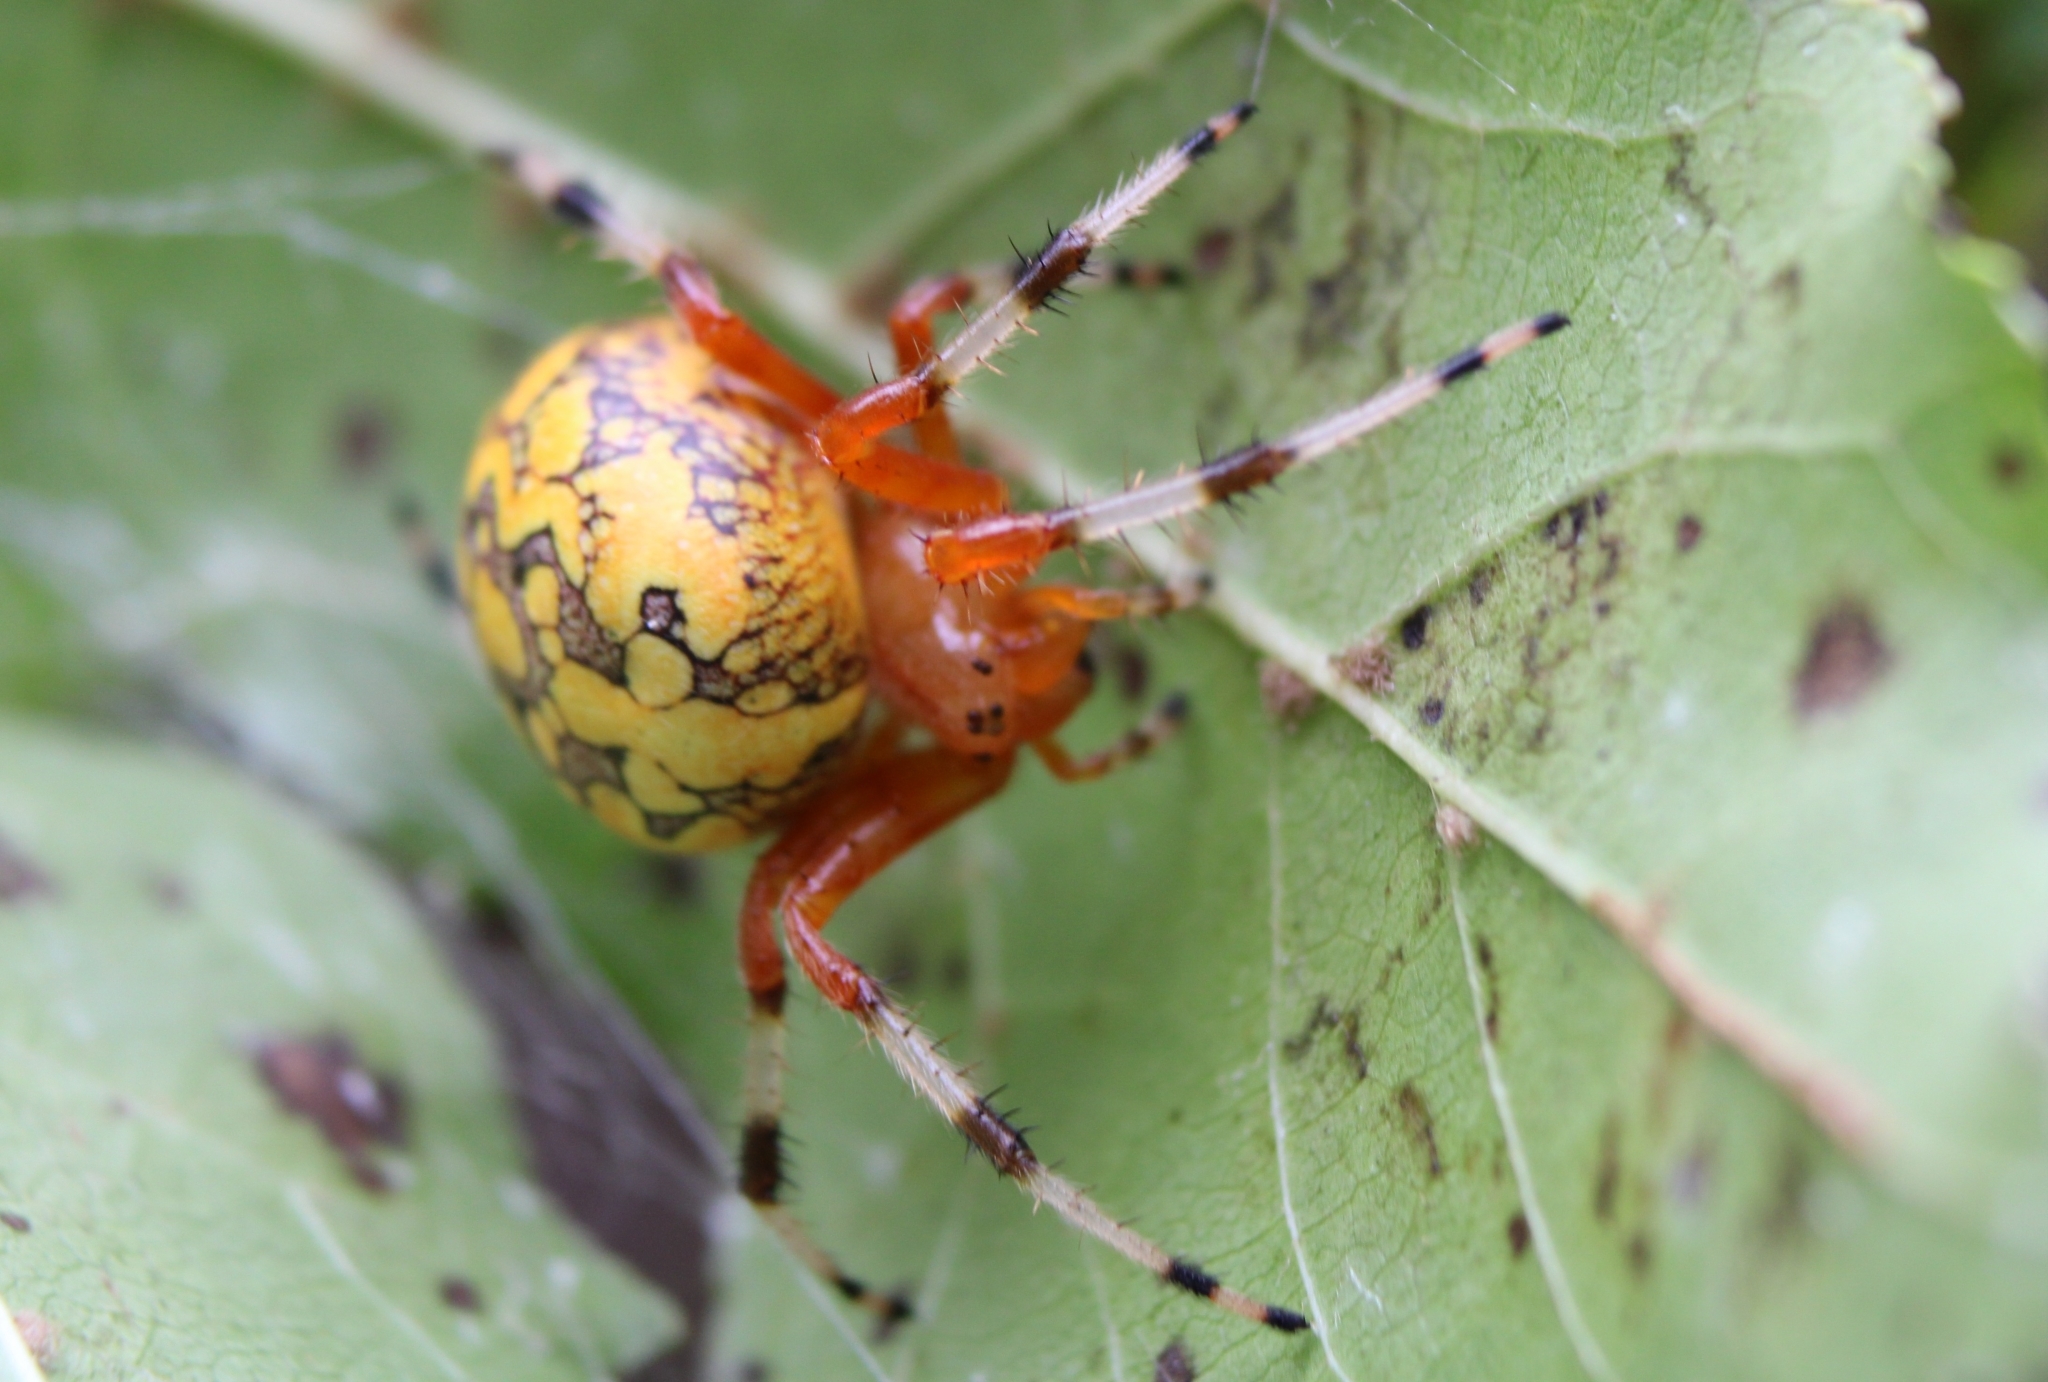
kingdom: Animalia
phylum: Arthropoda
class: Arachnida
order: Araneae
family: Araneidae
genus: Araneus
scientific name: Araneus marmoreus
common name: Marbled orbweaver
